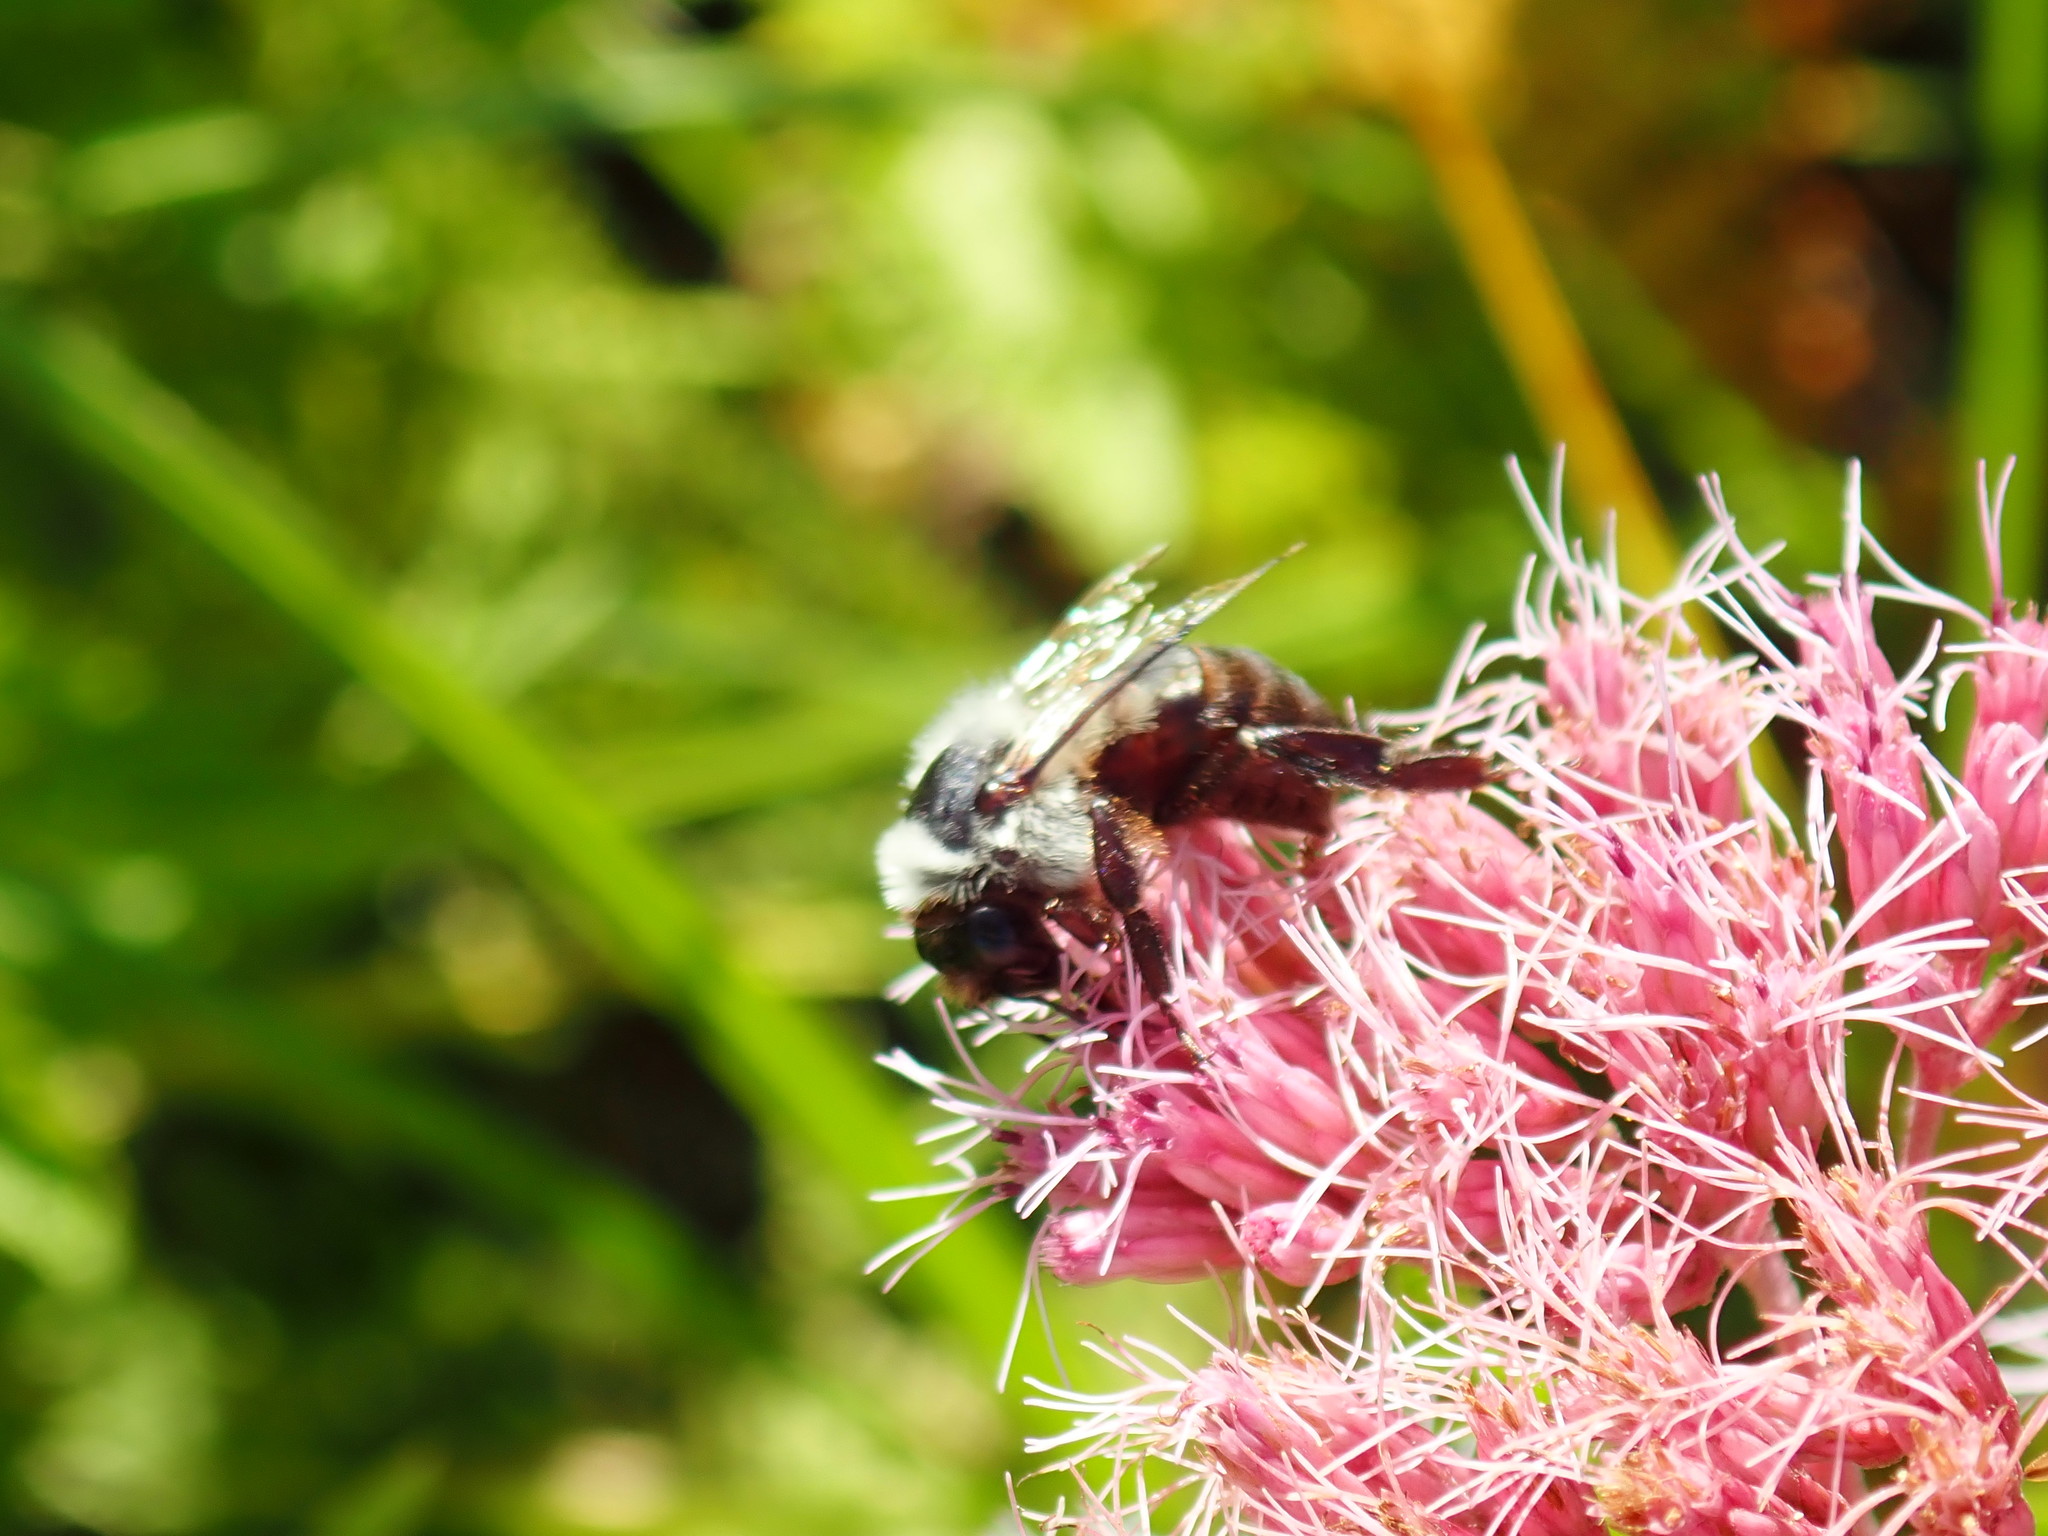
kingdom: Animalia
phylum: Arthropoda
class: Insecta
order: Hymenoptera
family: Apidae
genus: Bombus
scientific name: Bombus impatiens
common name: Common eastern bumble bee
